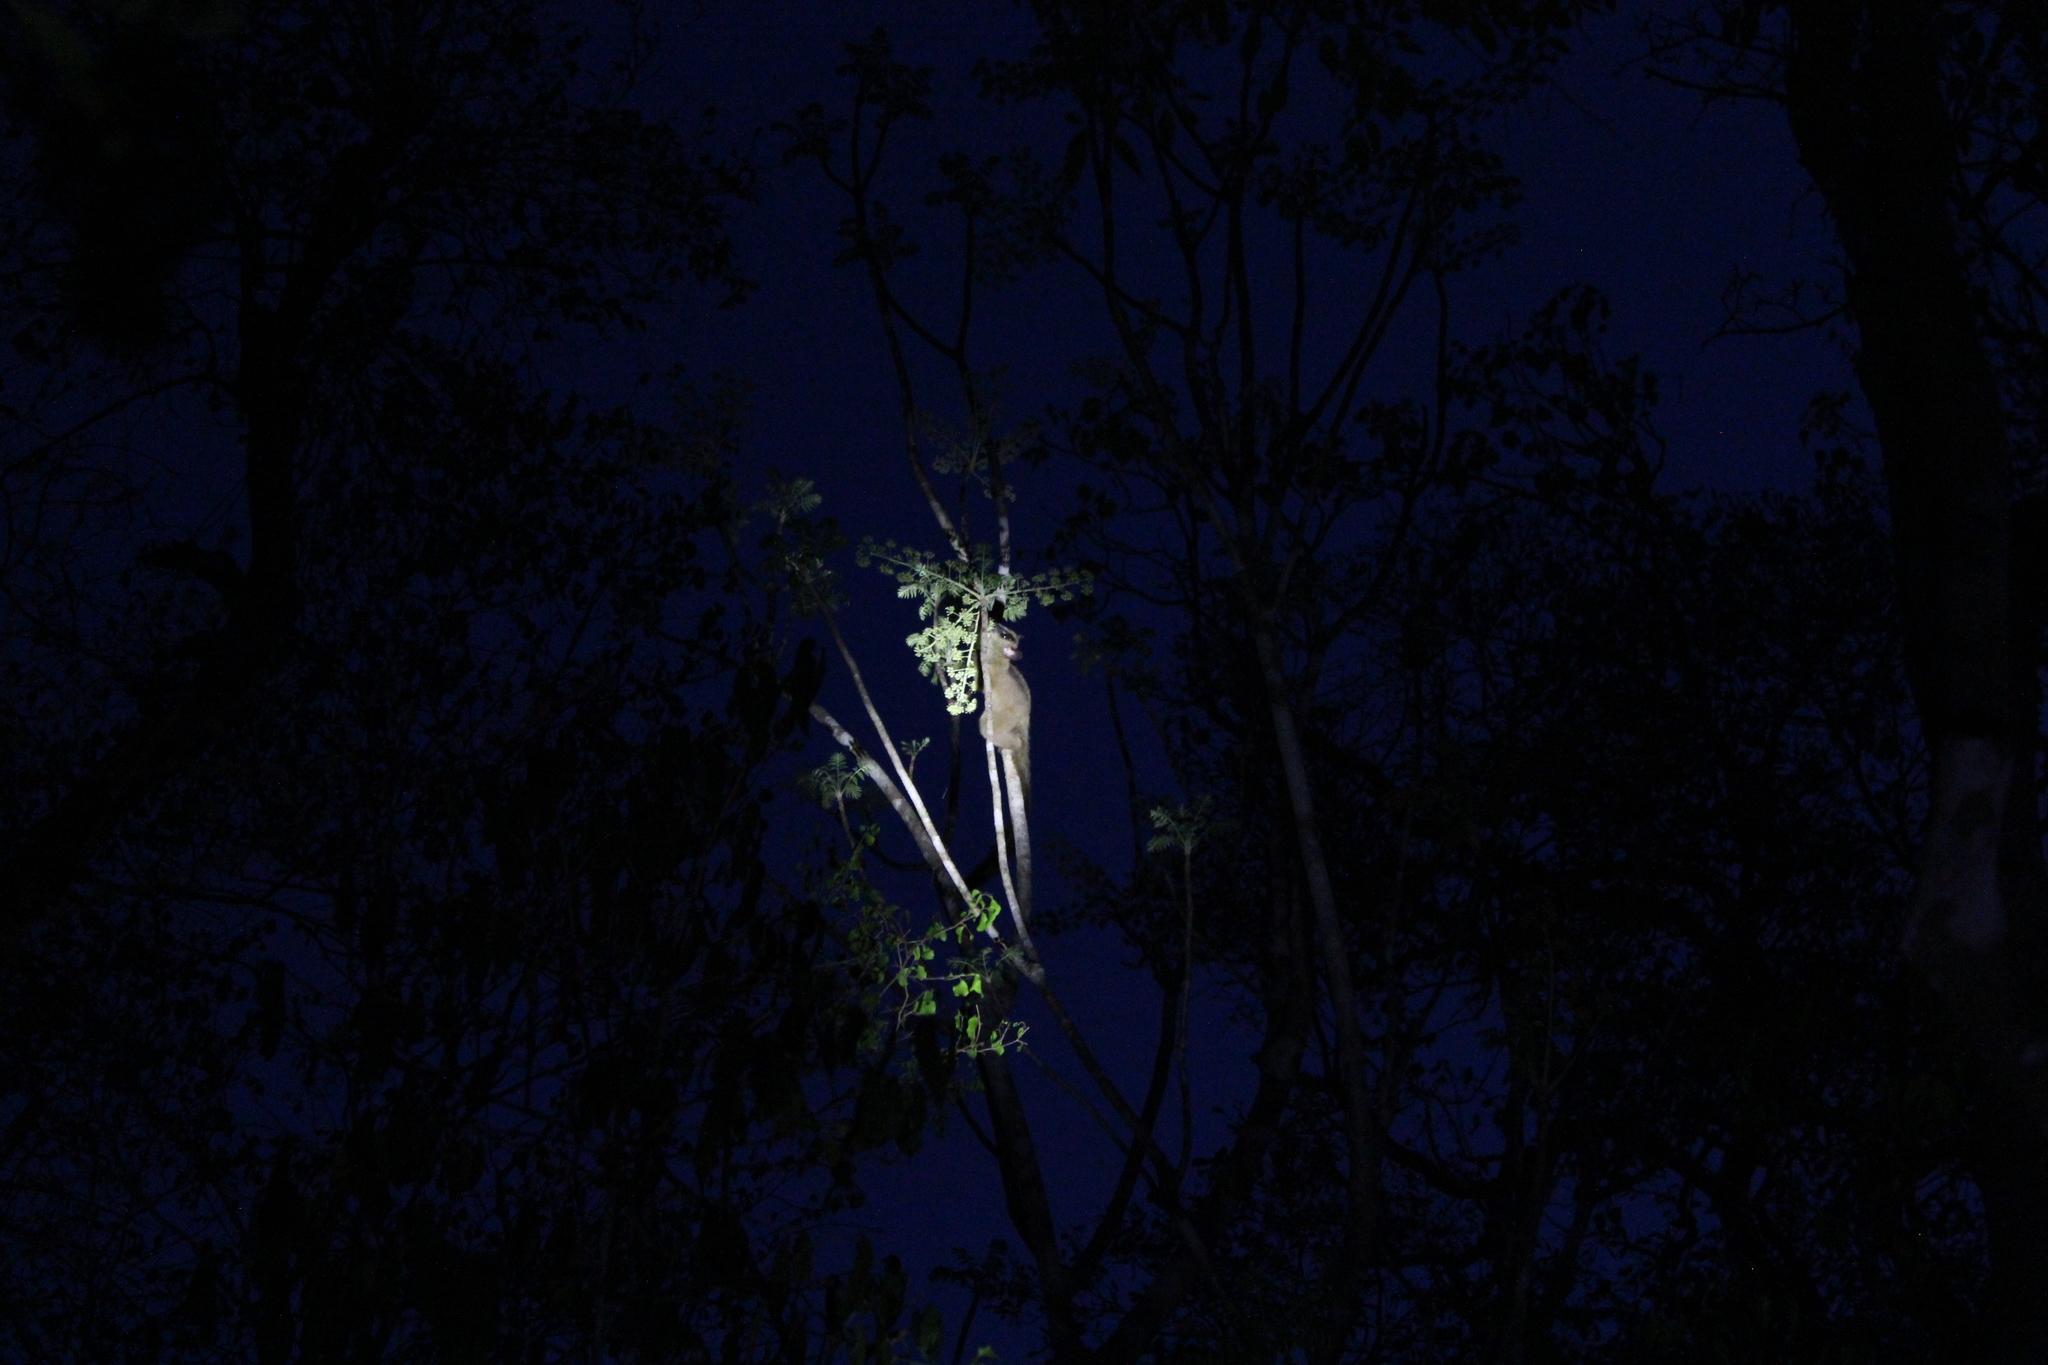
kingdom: Animalia
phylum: Chordata
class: Mammalia
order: Primates
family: Cheirogaleidae
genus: Phaner
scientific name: Phaner pallescens
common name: Pale fork-marked lemur
